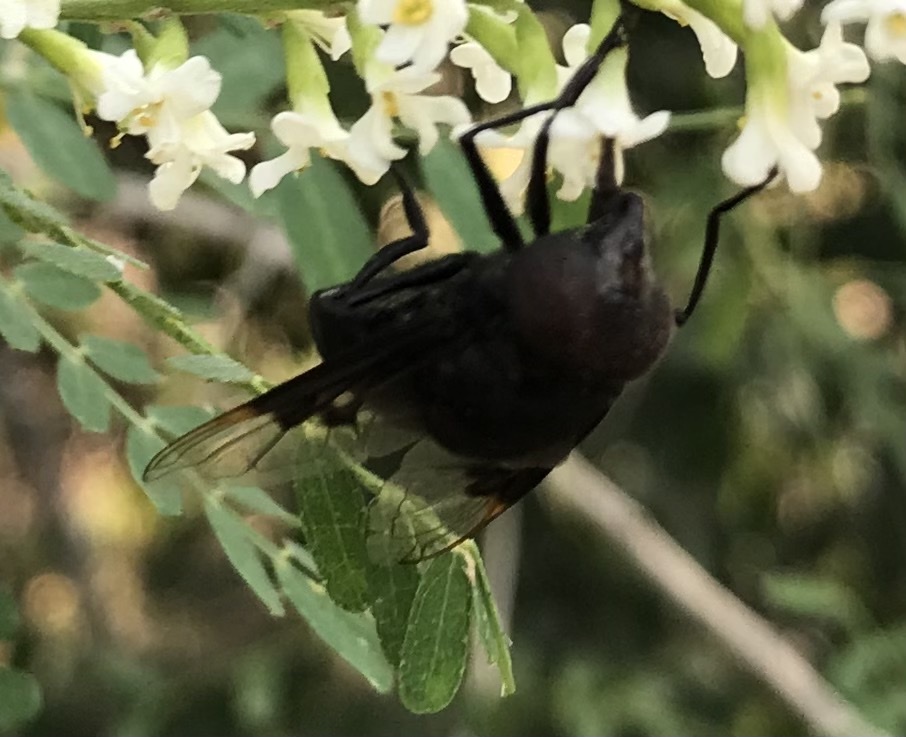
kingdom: Animalia
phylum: Arthropoda
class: Insecta
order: Diptera
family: Syrphidae
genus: Copestylum
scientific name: Copestylum mexicanum
